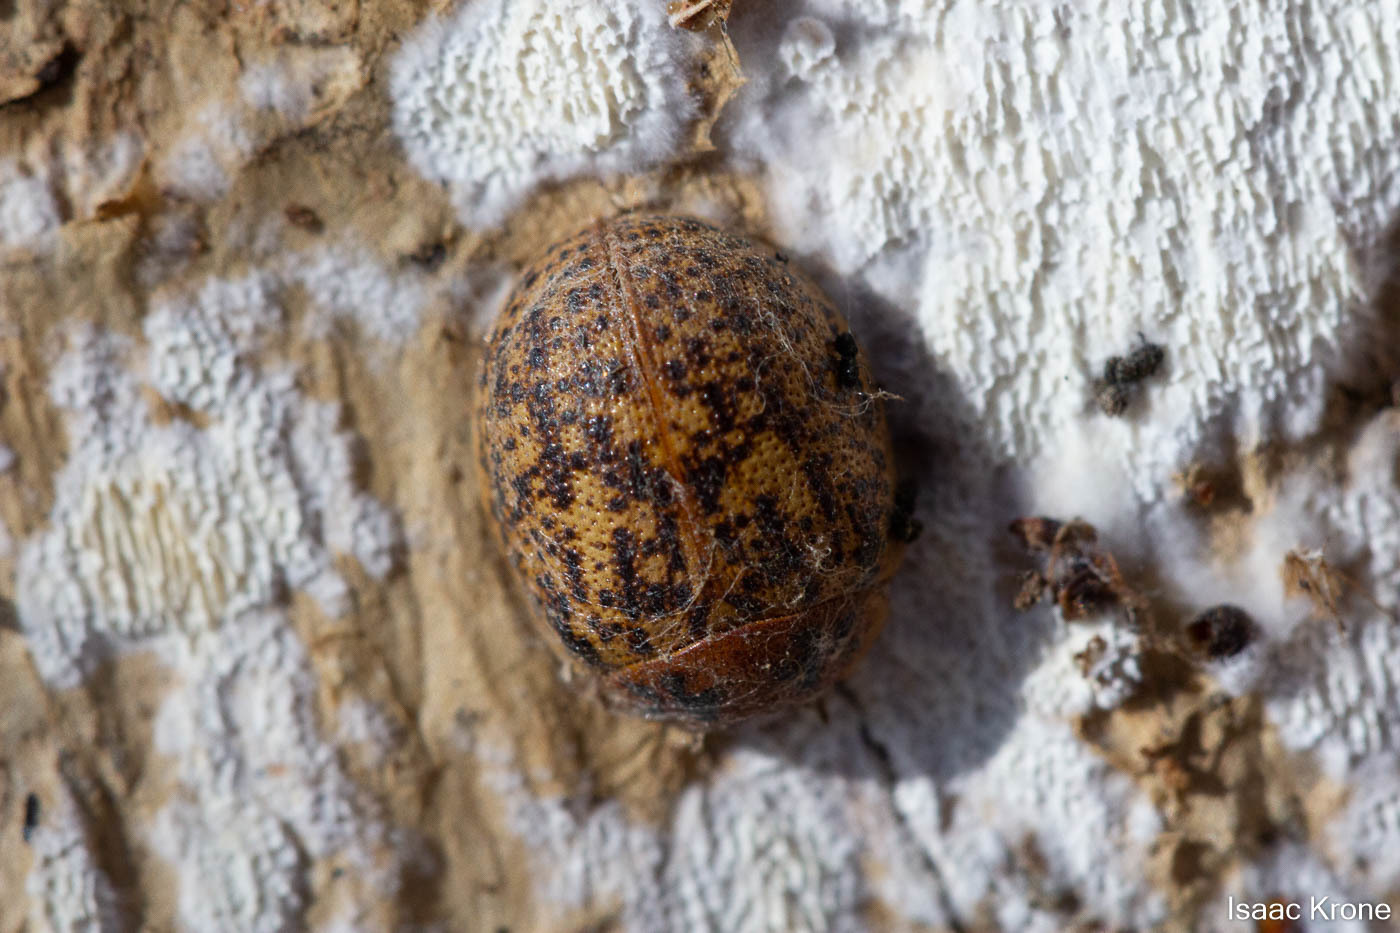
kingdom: Animalia
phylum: Arthropoda
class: Insecta
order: Coleoptera
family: Chrysomelidae
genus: Trachymela
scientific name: Trachymela sloanei
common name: Australian tortoise beetle
